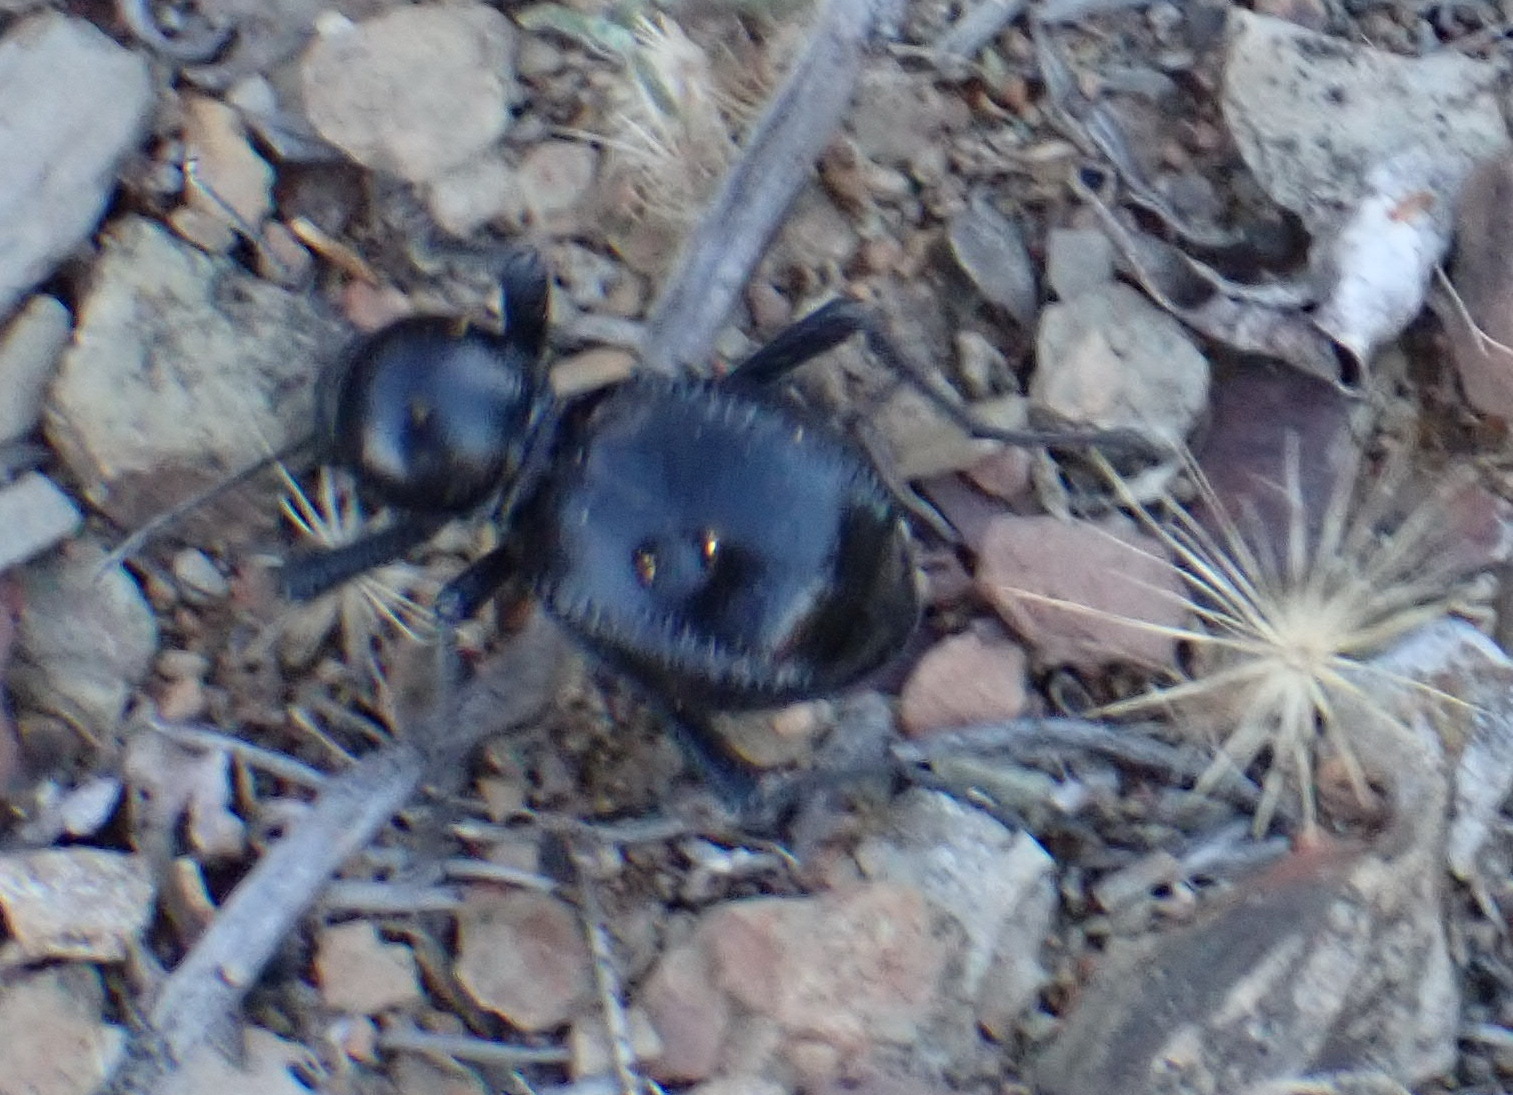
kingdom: Animalia
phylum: Arthropoda
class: Insecta
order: Coleoptera
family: Tenebrionidae
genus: Moluris
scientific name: Moluris gibba
